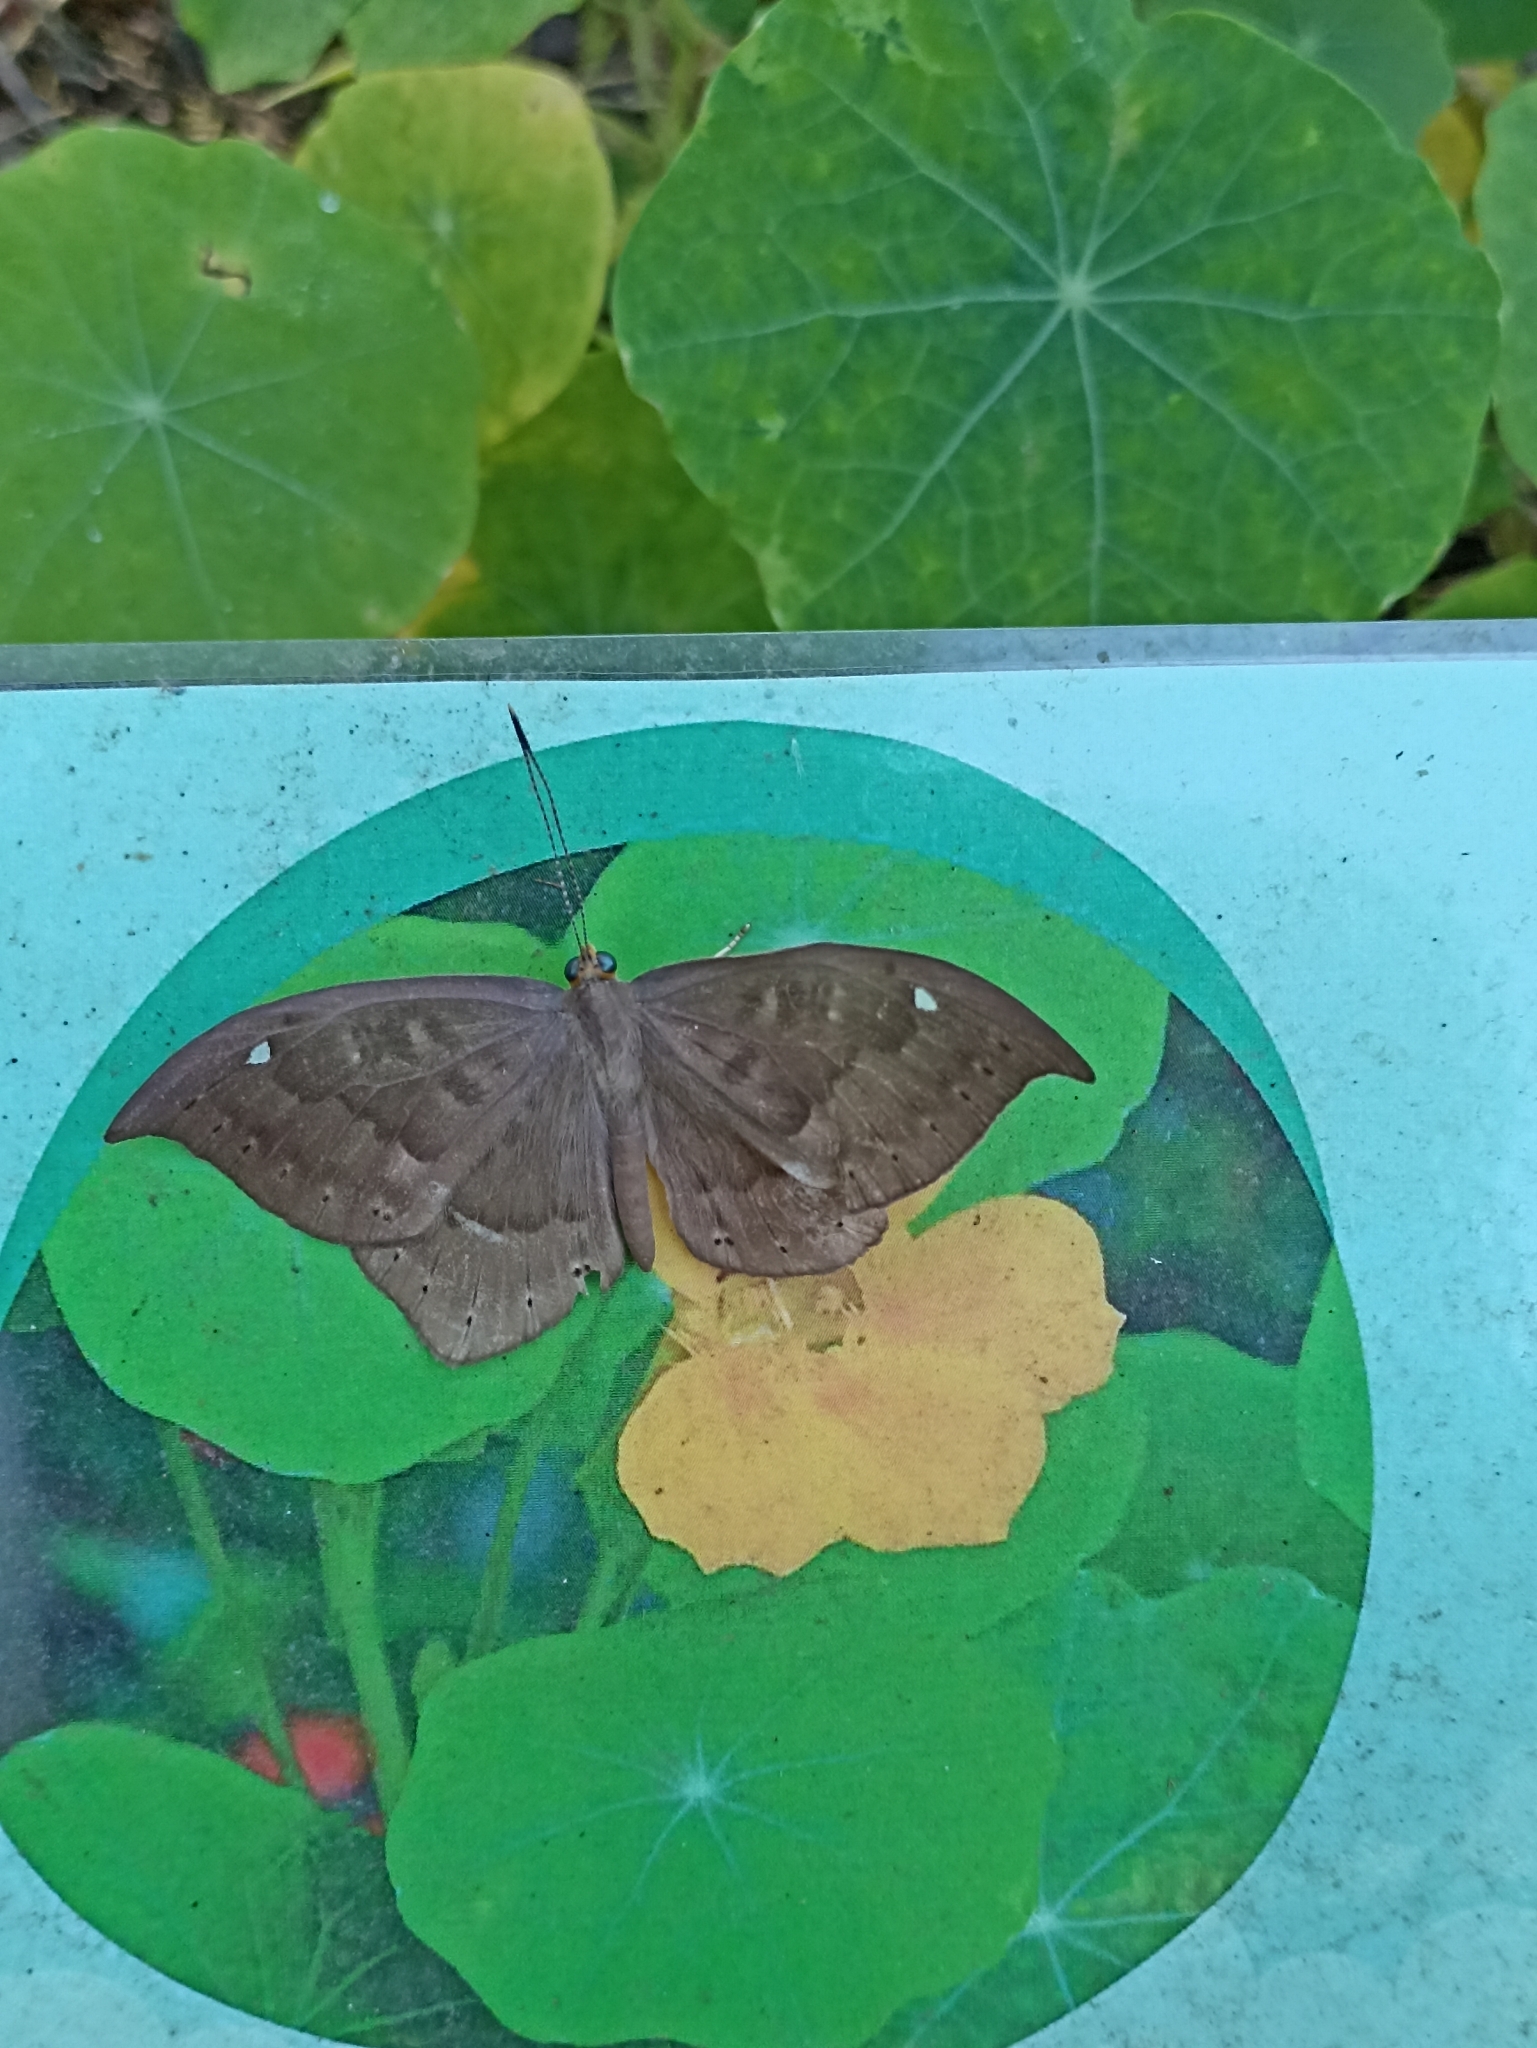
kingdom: Animalia
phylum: Cnidaria
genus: Eurybia
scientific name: Eurybia pergaea
